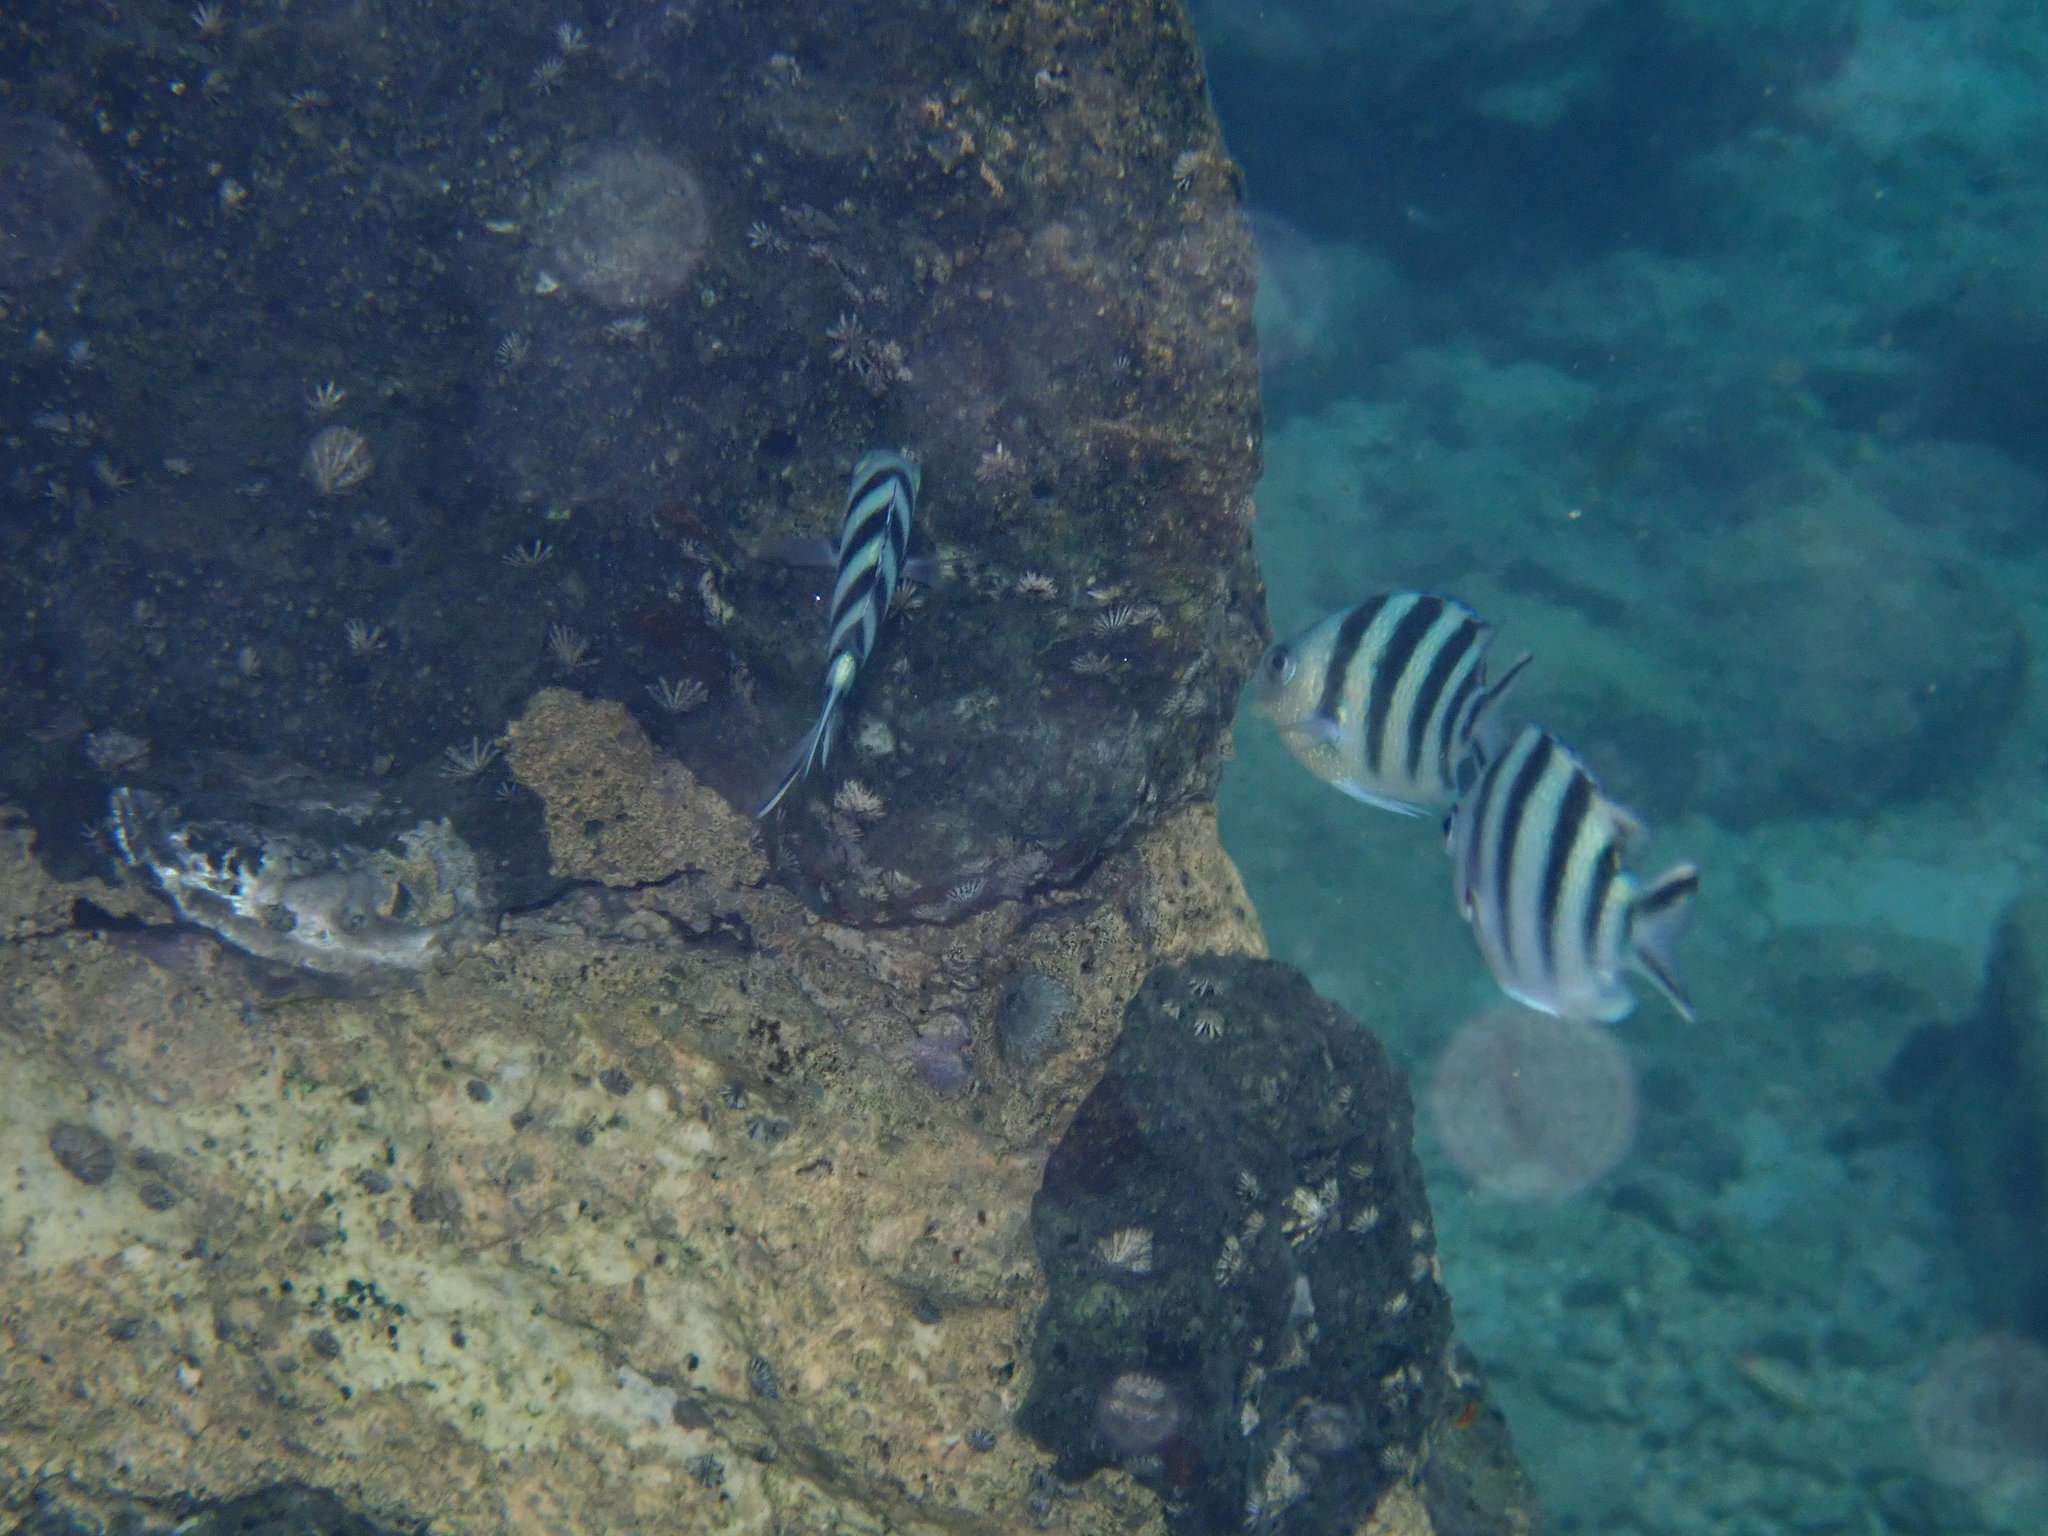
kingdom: Animalia
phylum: Chordata
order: Perciformes
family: Pomacentridae
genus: Abudefduf
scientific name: Abudefduf sexfasciatus
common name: Scissortail sergeant
